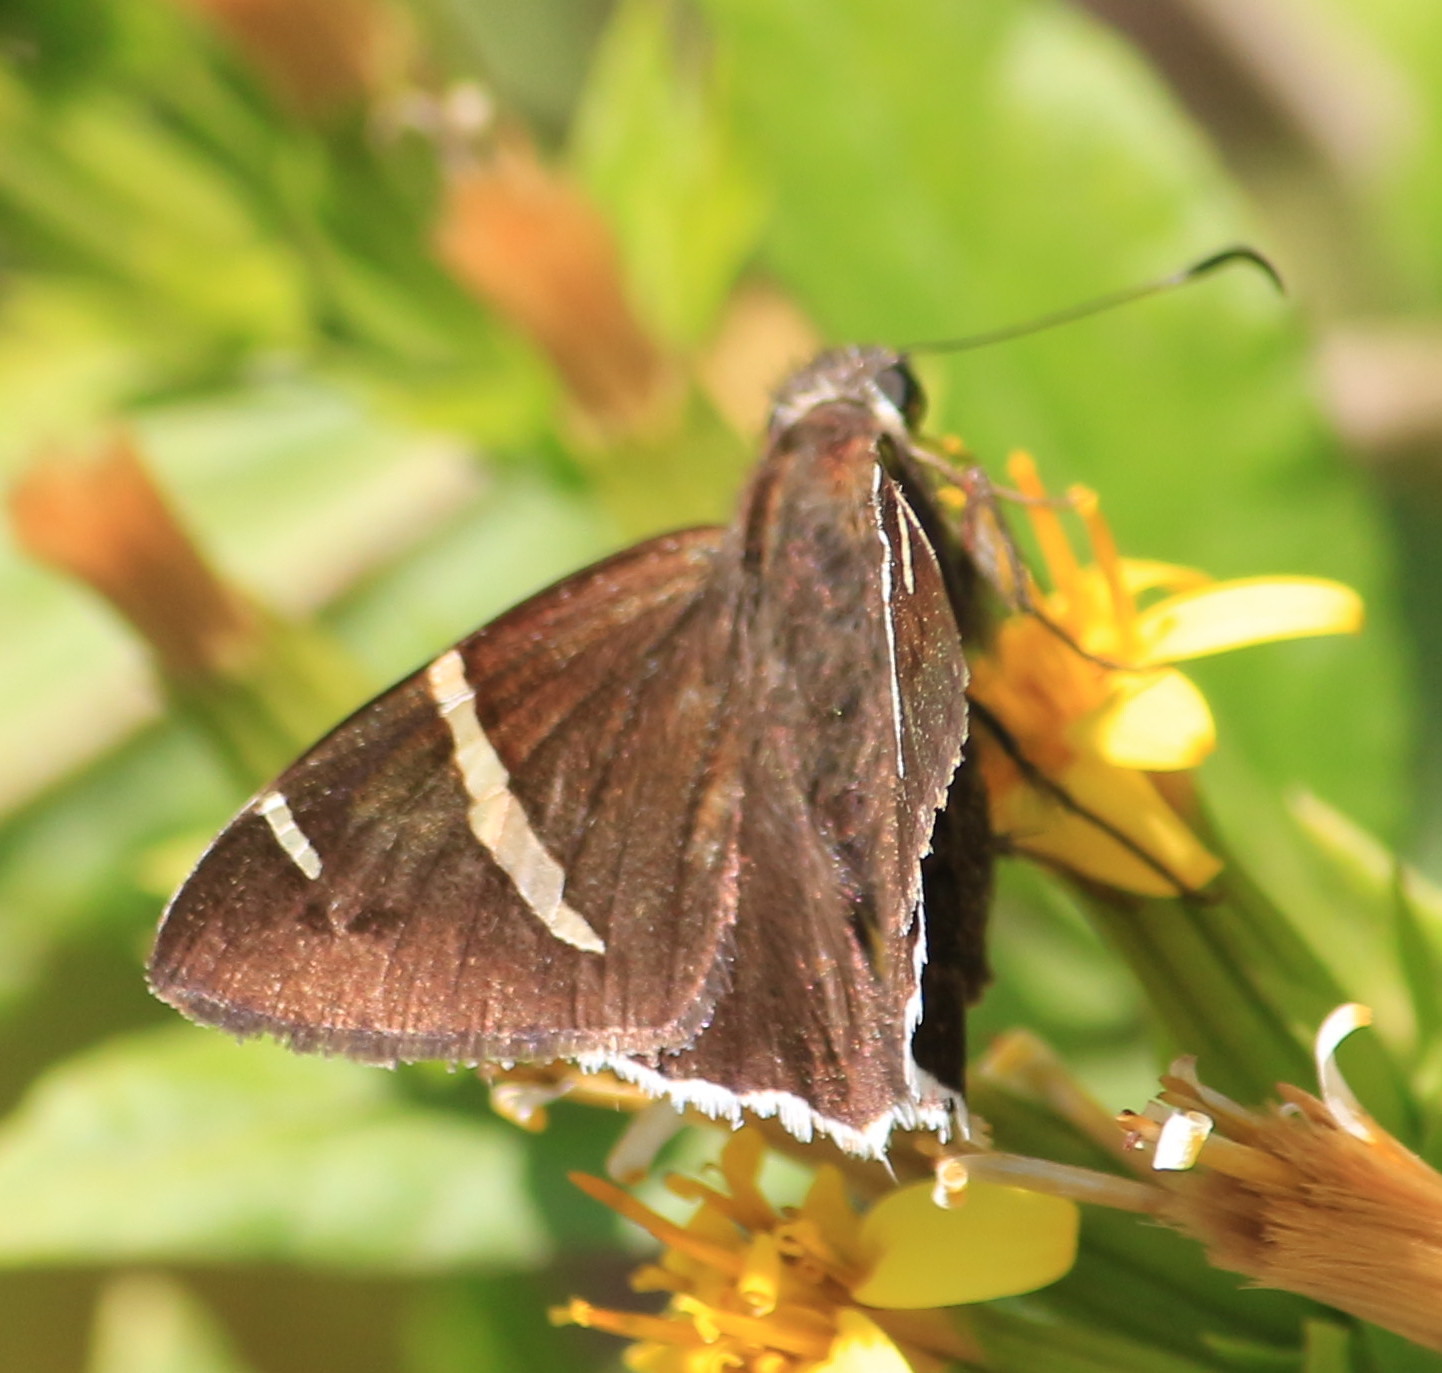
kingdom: Animalia
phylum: Arthropoda
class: Insecta
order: Lepidoptera
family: Hesperiidae
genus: Thorybes
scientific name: Thorybes cincta
